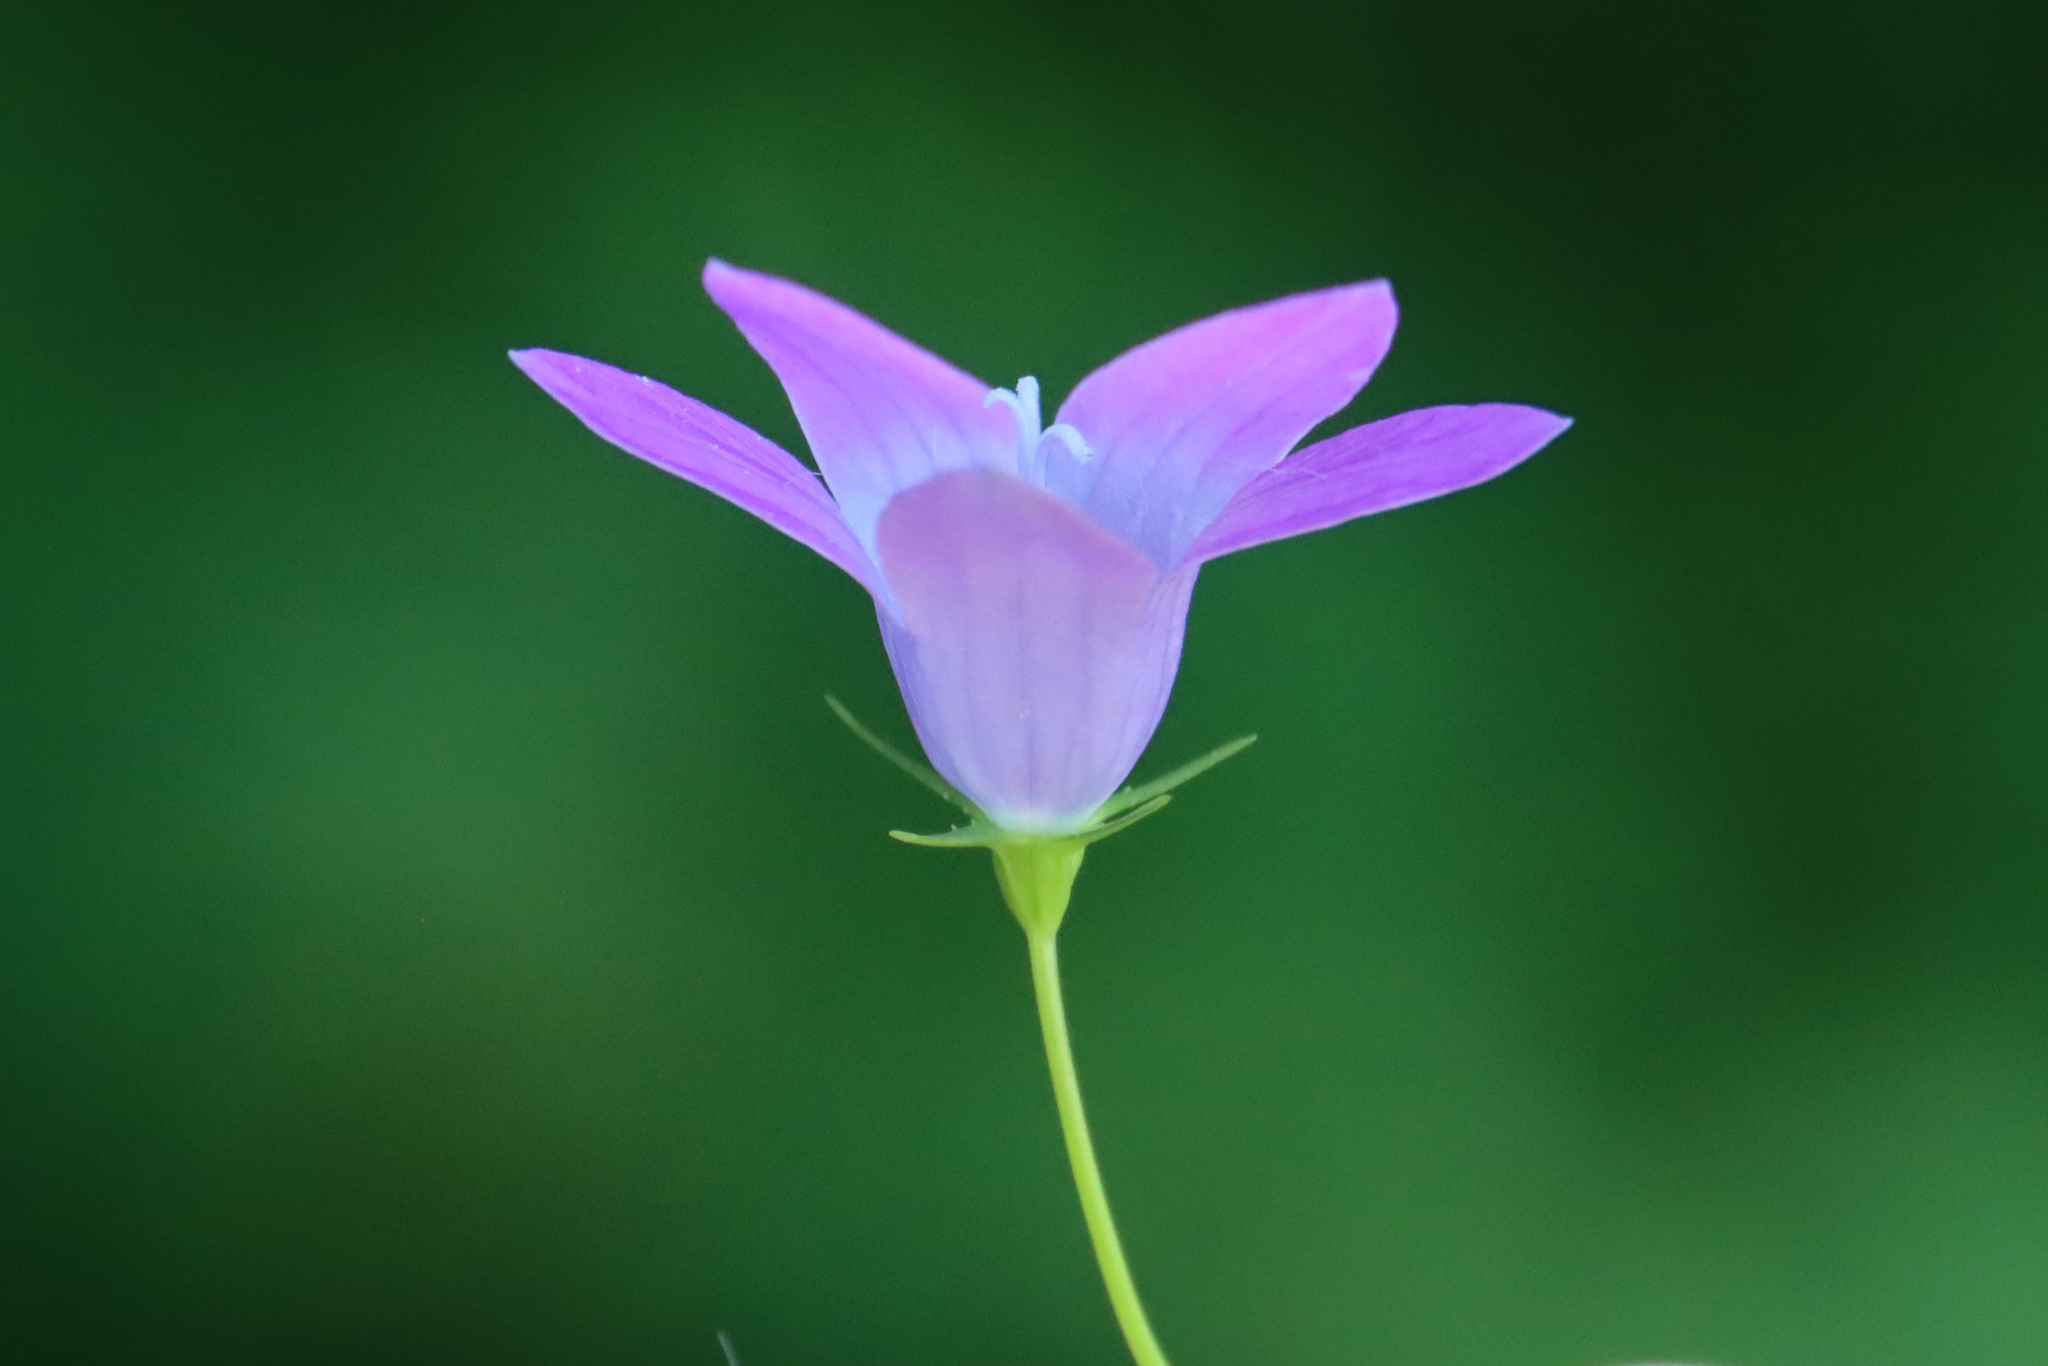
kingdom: Plantae
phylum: Tracheophyta
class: Magnoliopsida
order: Asterales
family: Campanulaceae
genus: Campanula
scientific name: Campanula patula
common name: Spreading bellflower
